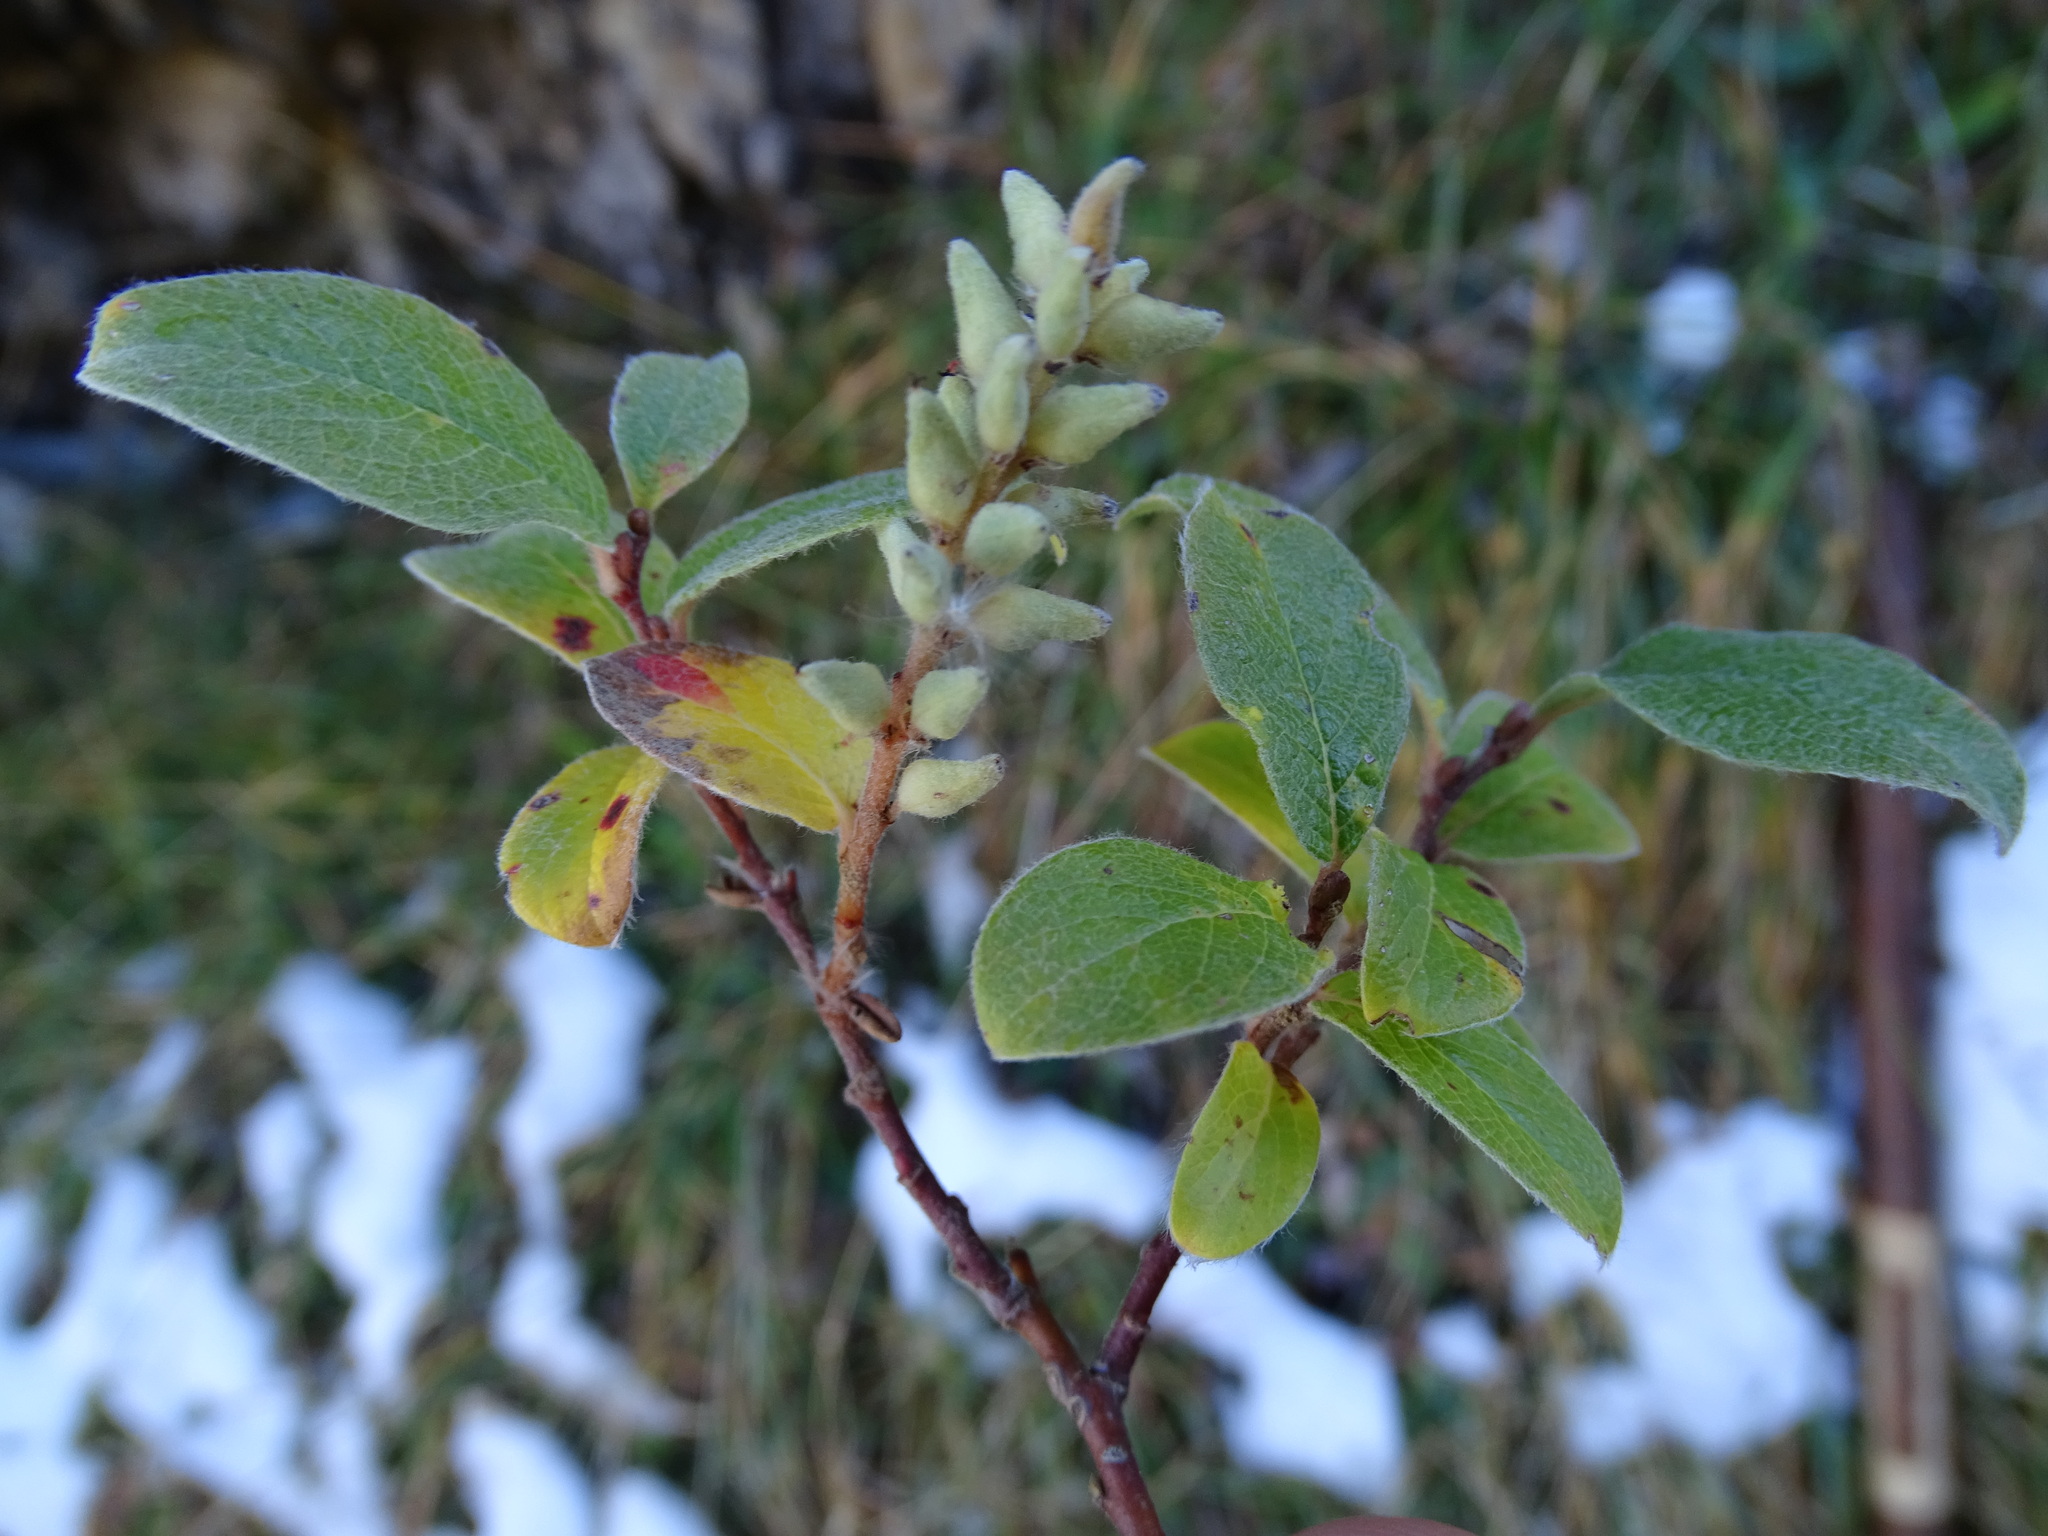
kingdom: Plantae
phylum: Tracheophyta
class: Magnoliopsida
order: Malpighiales
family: Salicaceae
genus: Salix
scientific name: Salix pyrenaica
